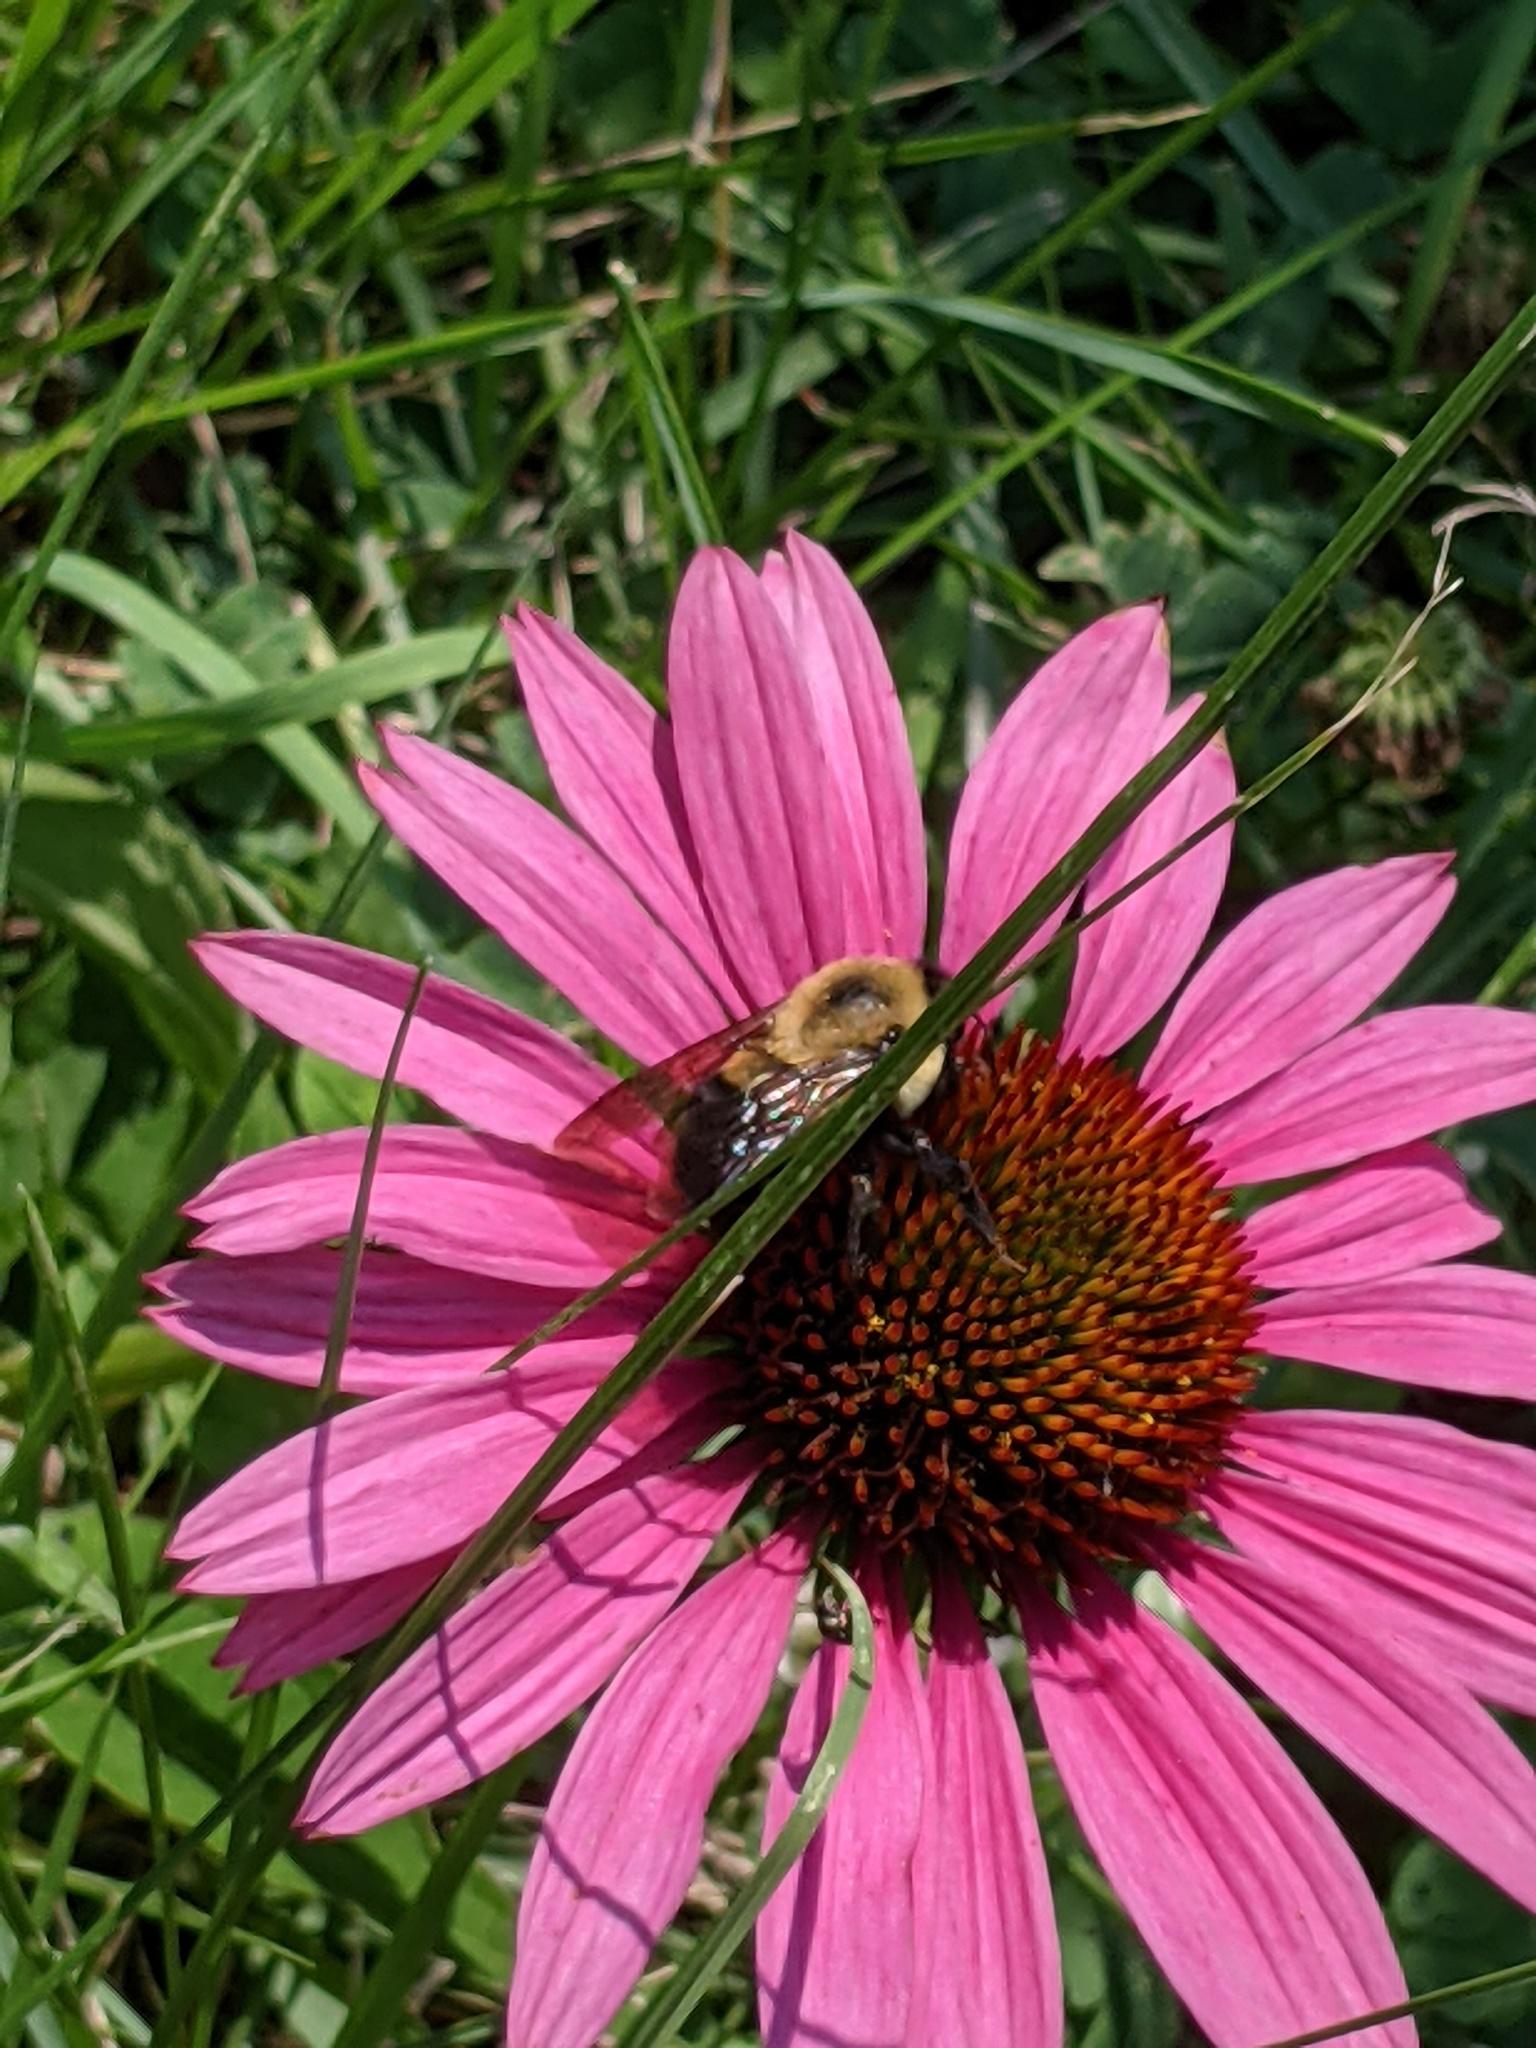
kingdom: Animalia
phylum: Arthropoda
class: Insecta
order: Hymenoptera
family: Apidae
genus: Bombus
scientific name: Bombus griseocollis
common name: Brown-belted bumble bee
